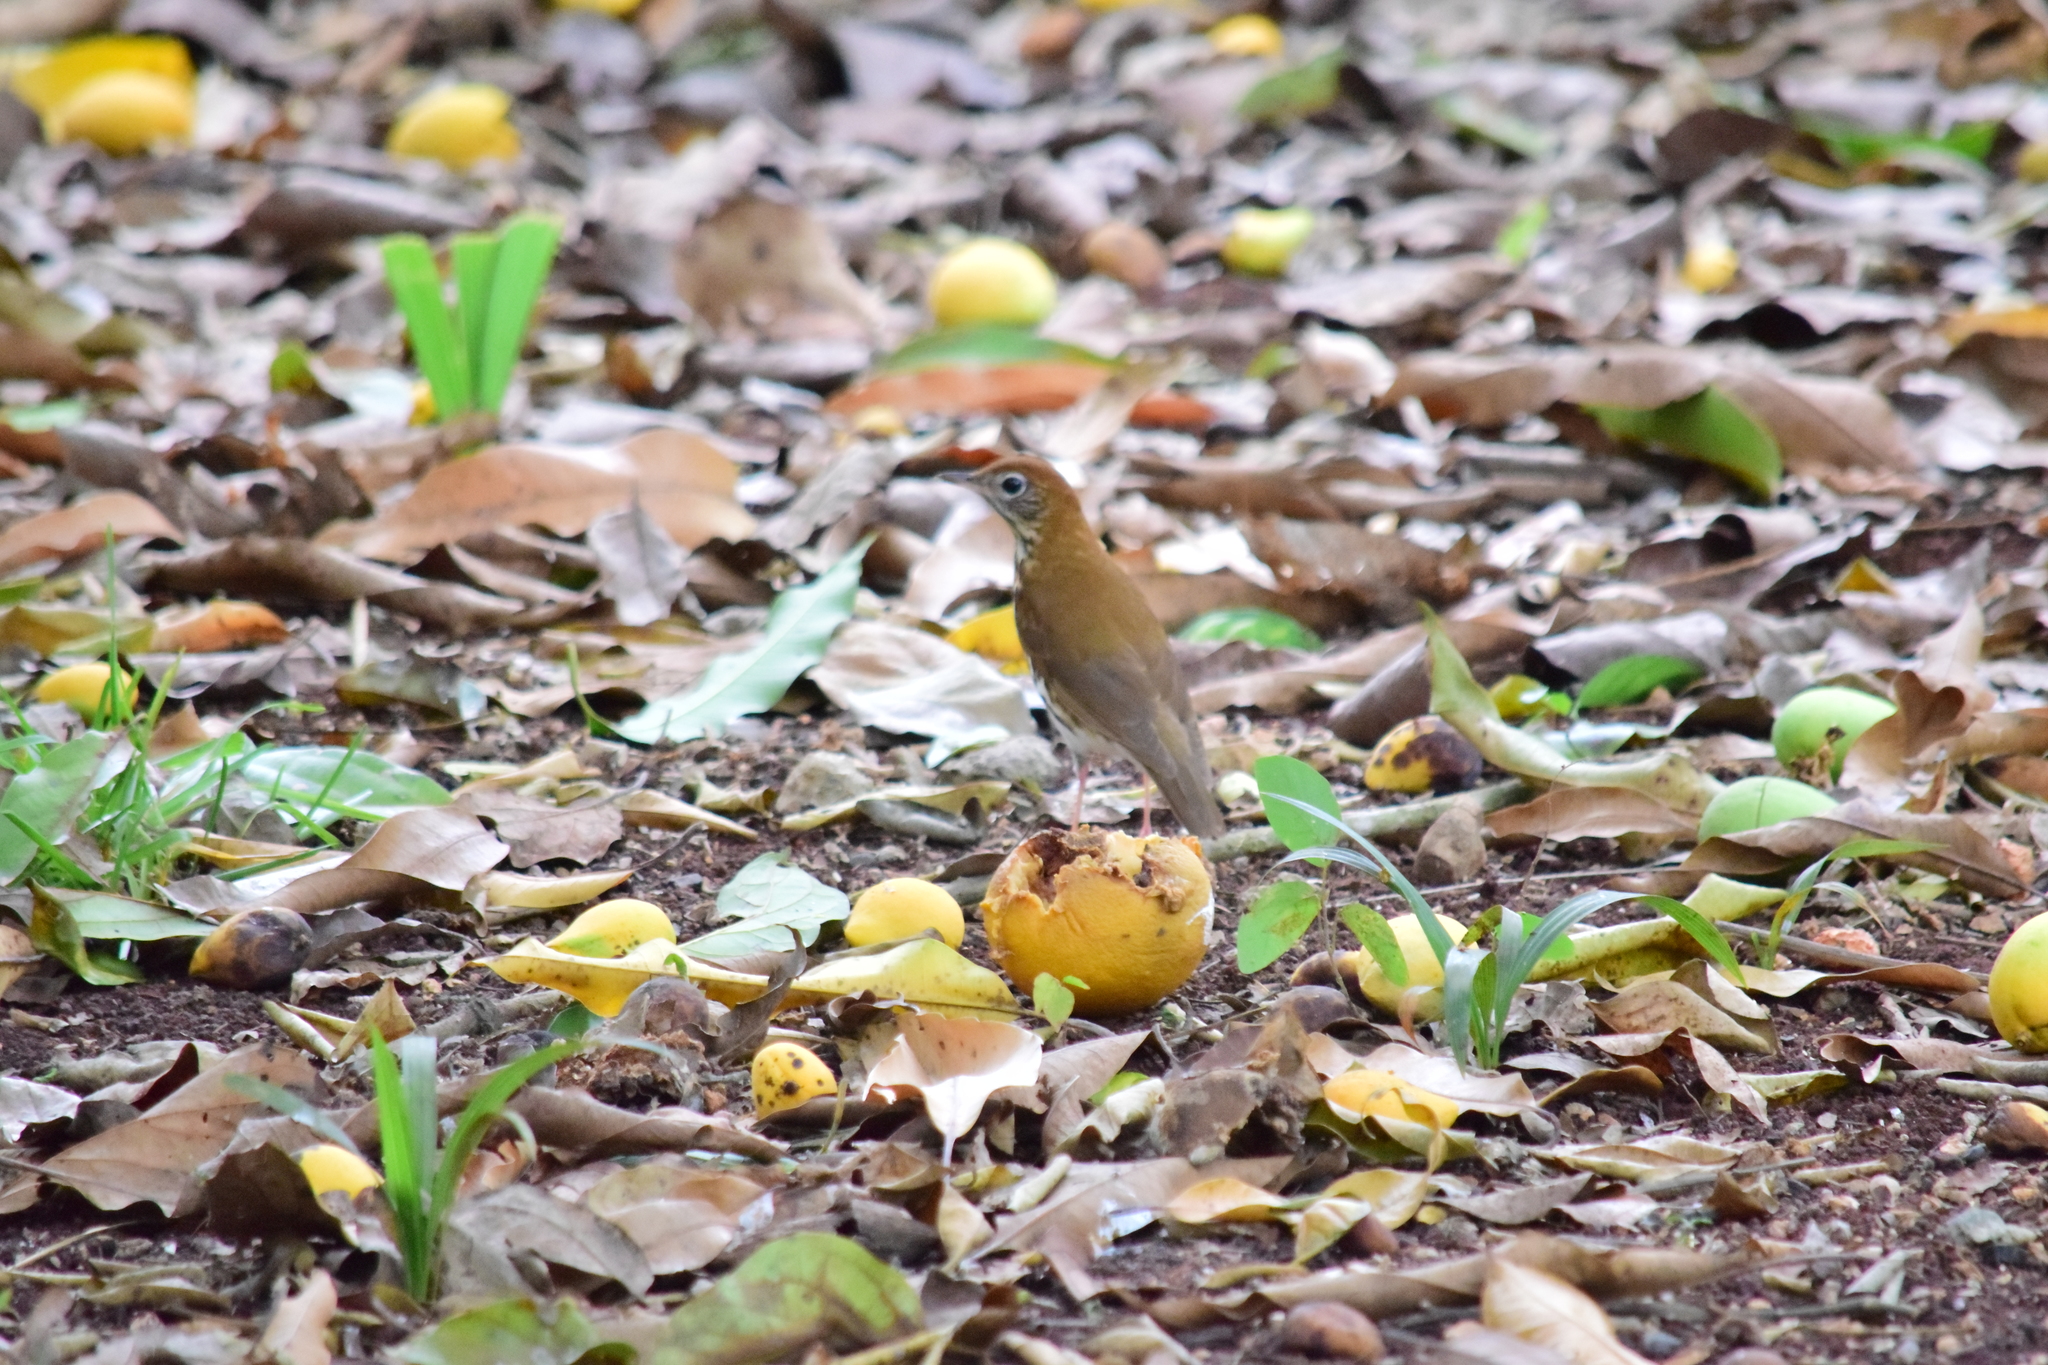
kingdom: Animalia
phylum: Chordata
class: Aves
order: Passeriformes
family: Turdidae
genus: Hylocichla
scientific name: Hylocichla mustelina
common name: Wood thrush
